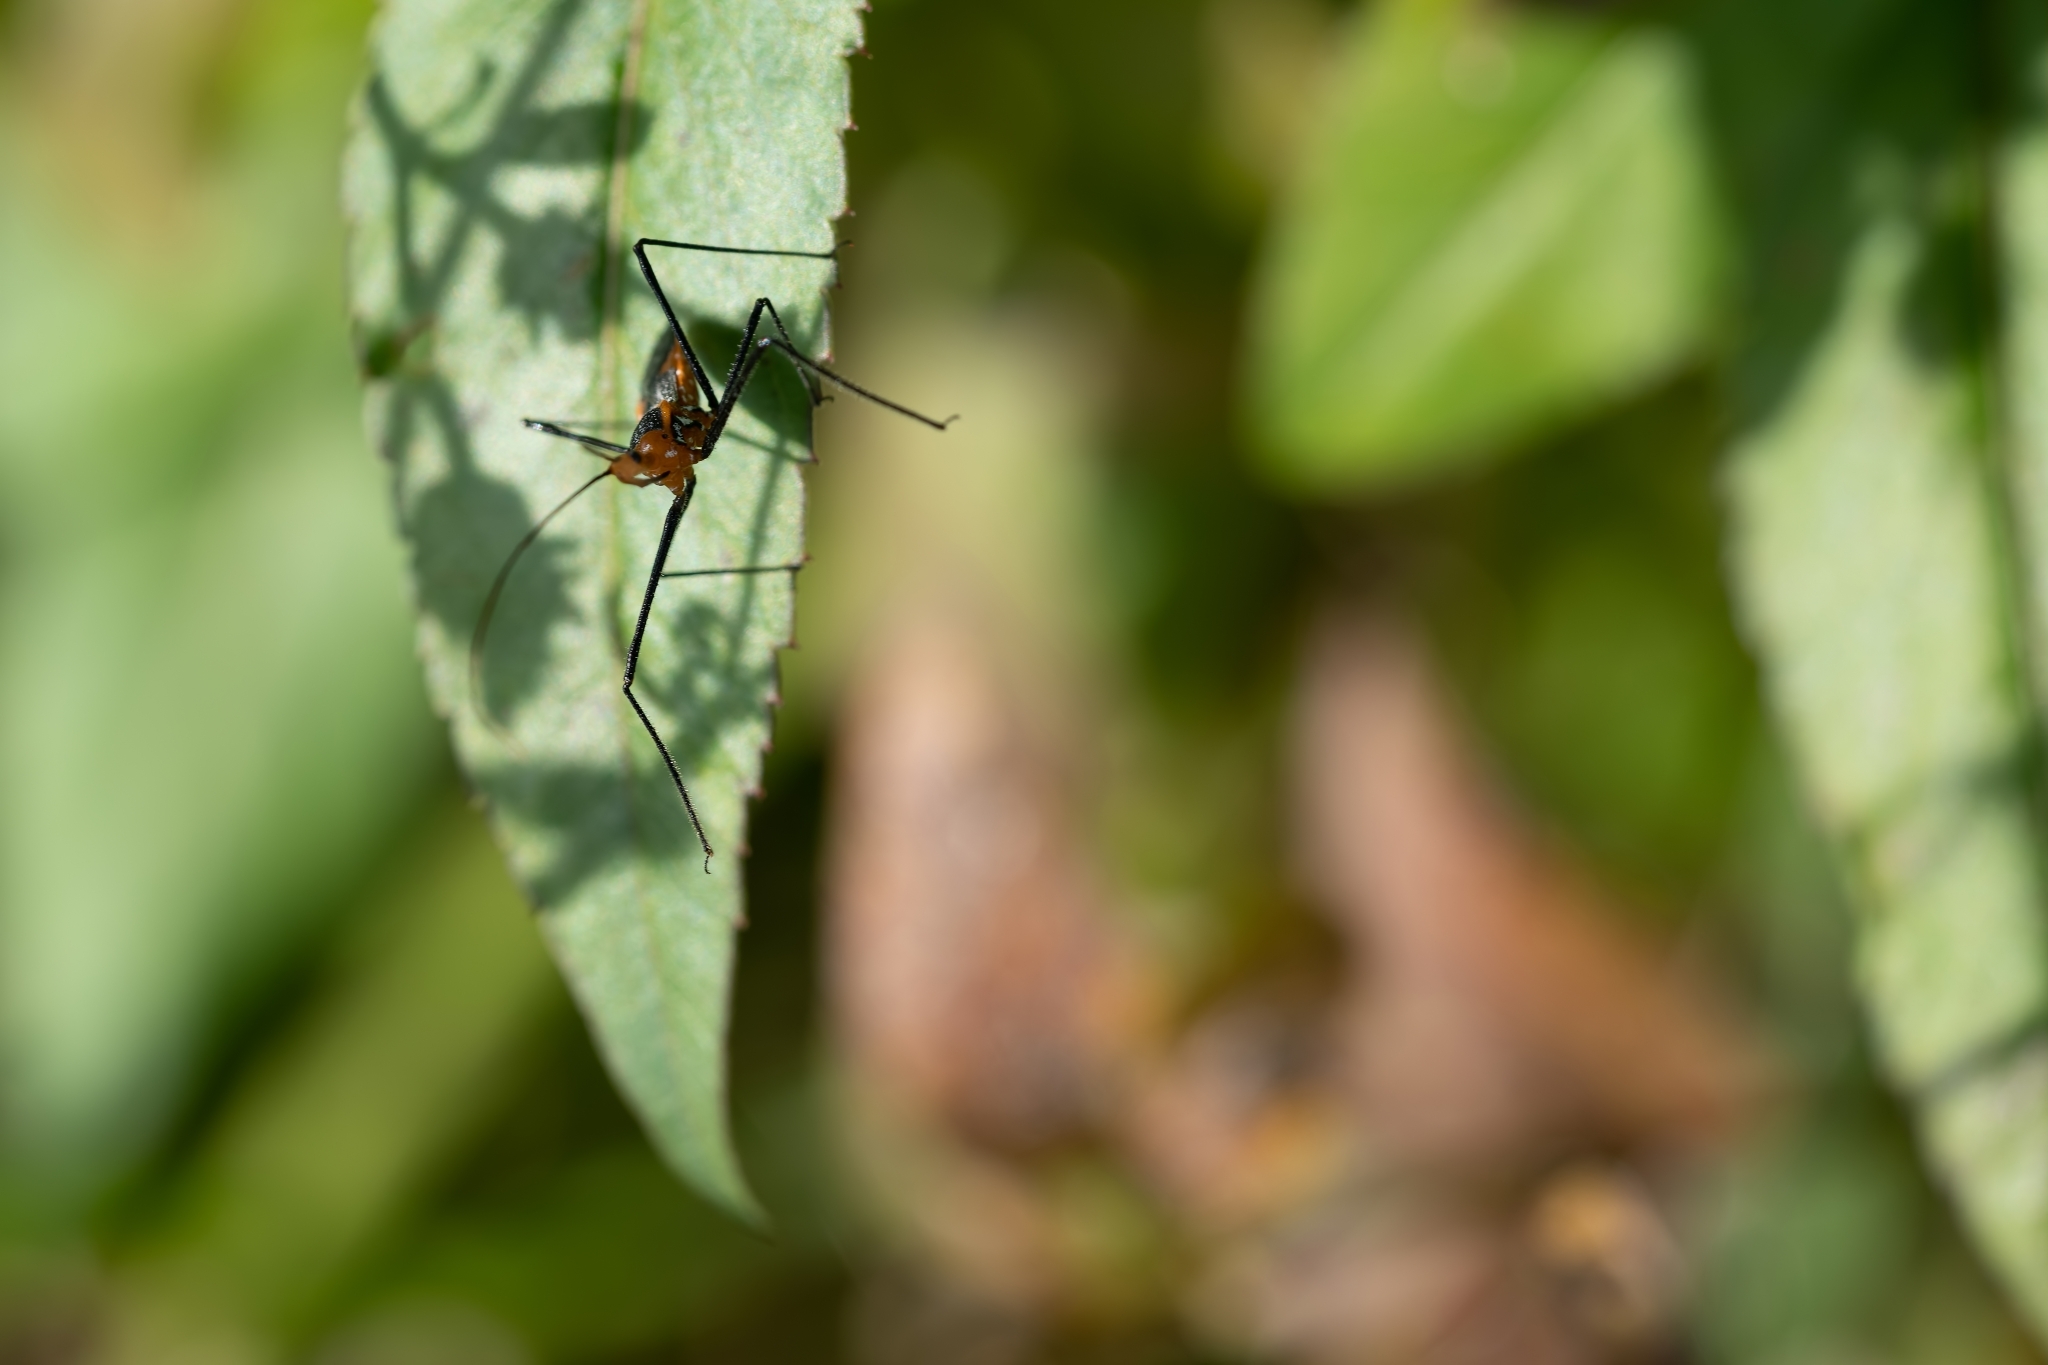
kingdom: Animalia
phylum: Arthropoda
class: Insecta
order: Hemiptera
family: Reduviidae
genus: Zelus
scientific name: Zelus longipes
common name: Milkweed assassin bug
